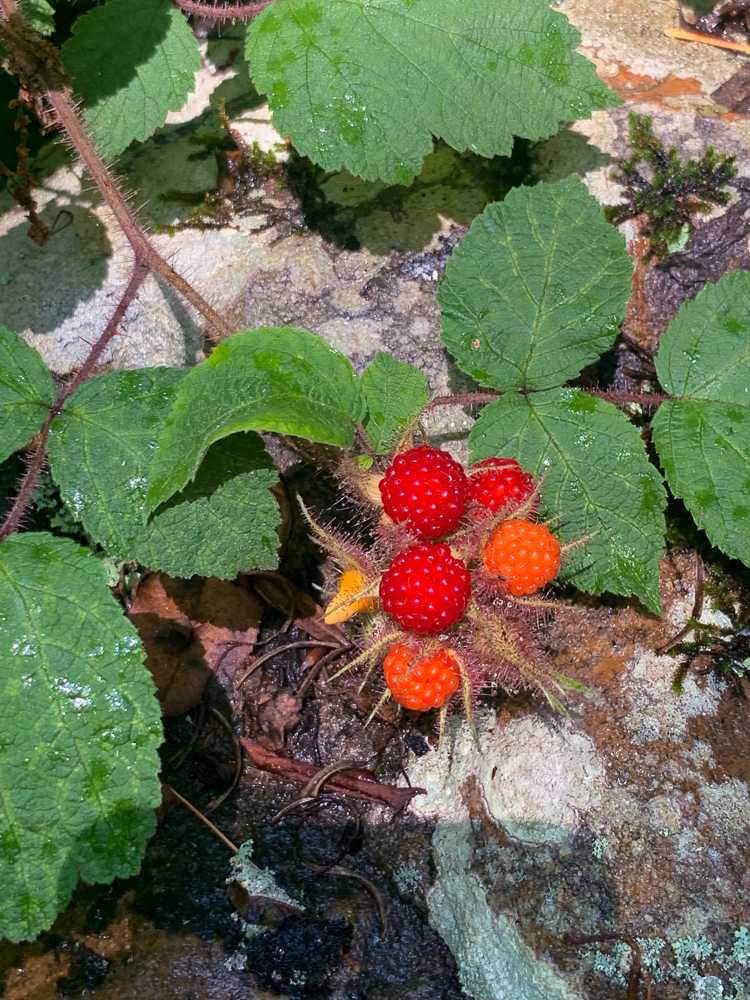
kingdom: Plantae
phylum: Tracheophyta
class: Magnoliopsida
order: Rosales
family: Rosaceae
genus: Rubus
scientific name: Rubus phoenicolasius
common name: Japanese wineberry
